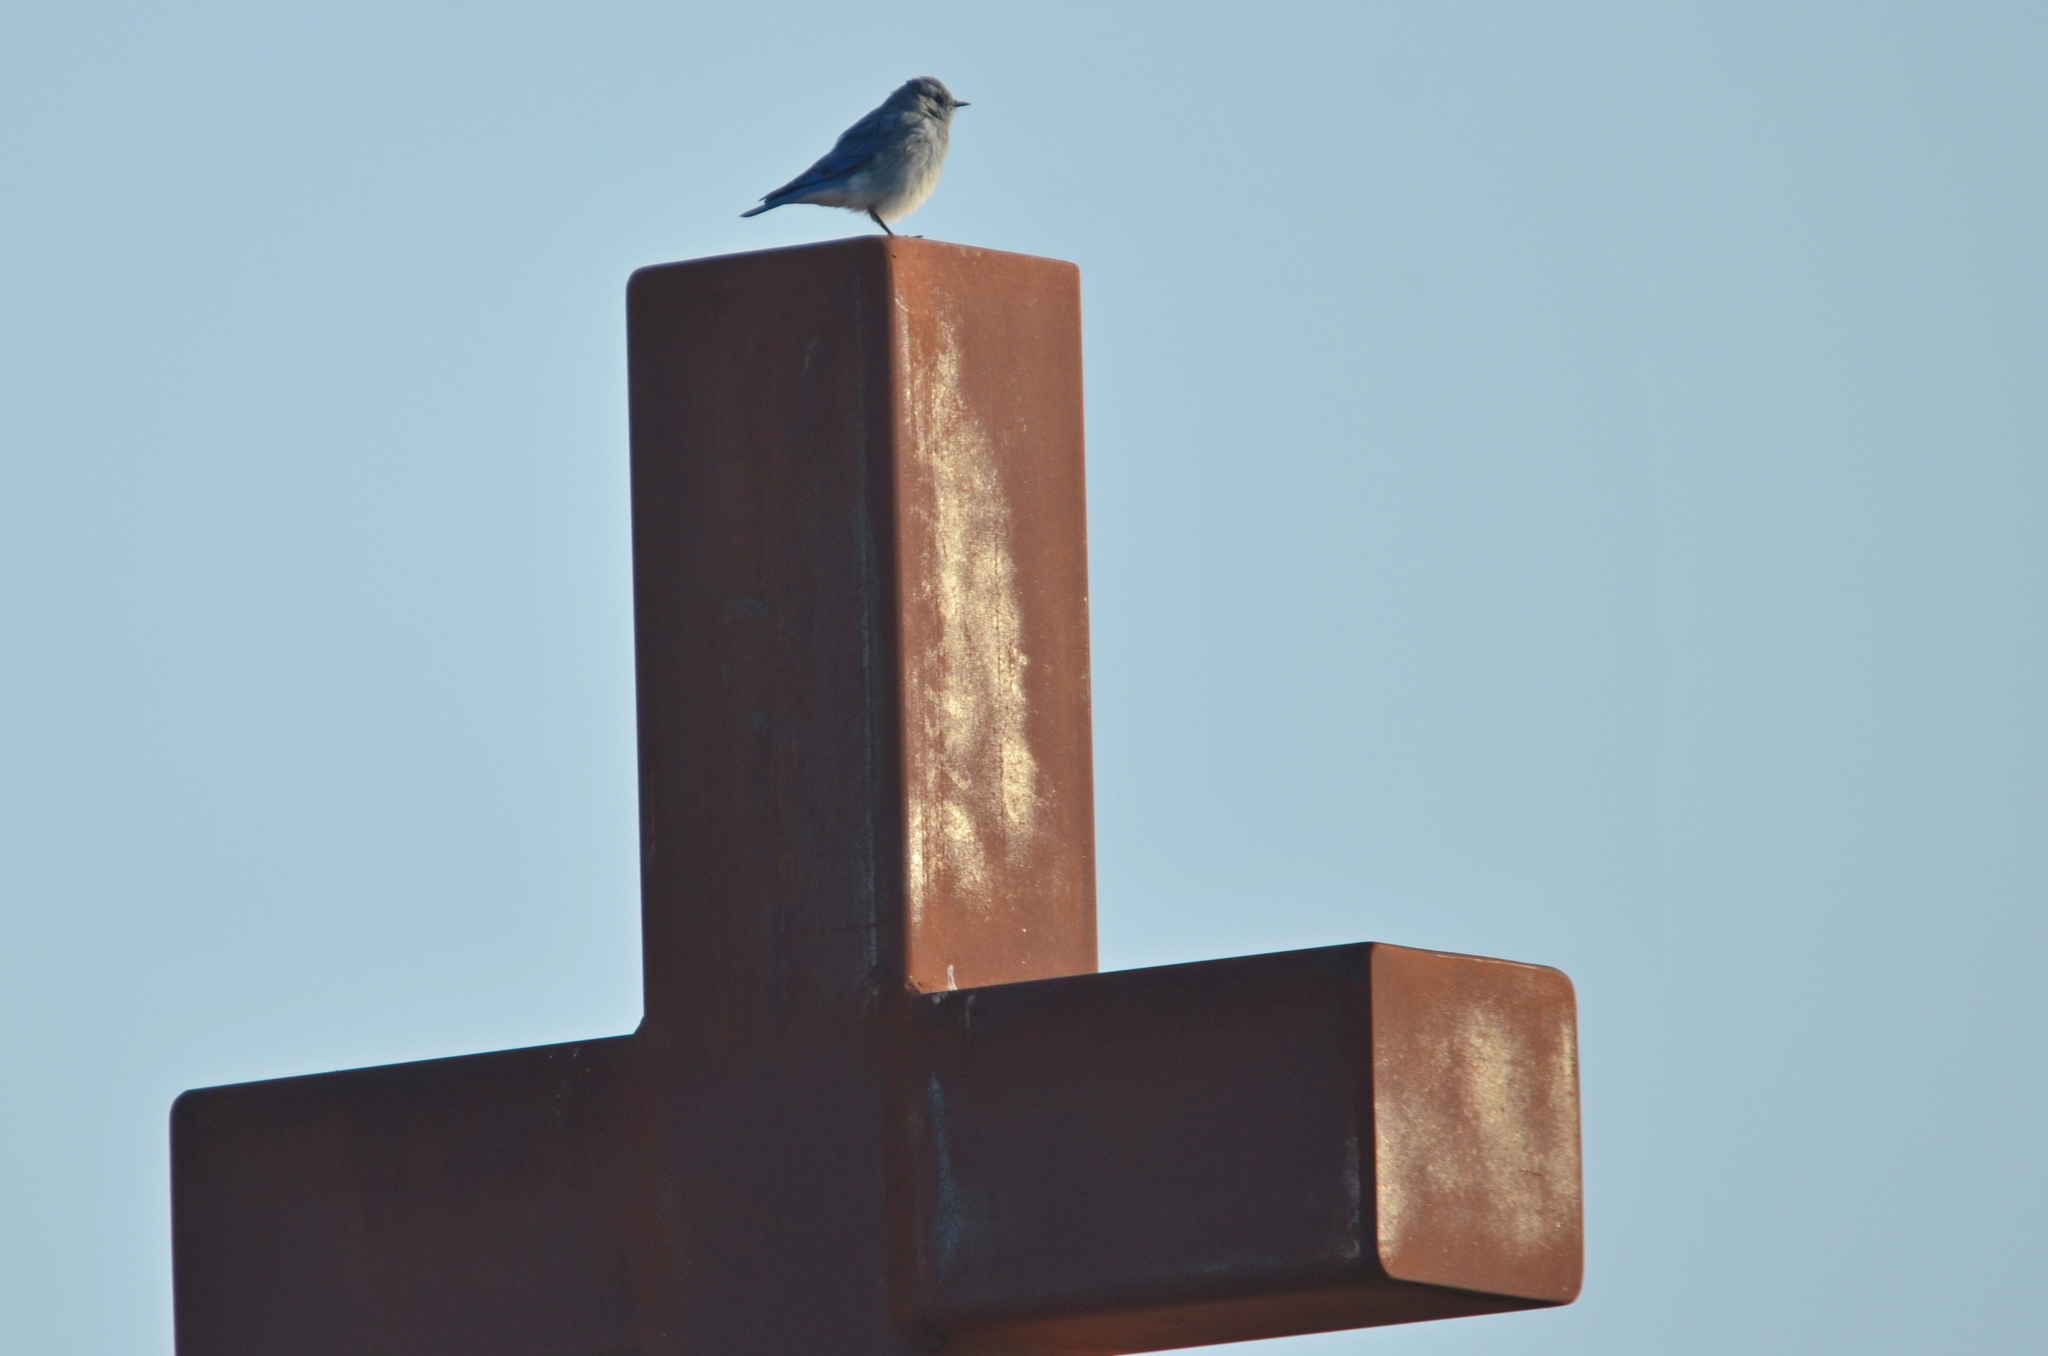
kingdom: Animalia
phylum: Chordata
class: Aves
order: Passeriformes
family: Turdidae
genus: Sialia
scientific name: Sialia currucoides
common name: Mountain bluebird
